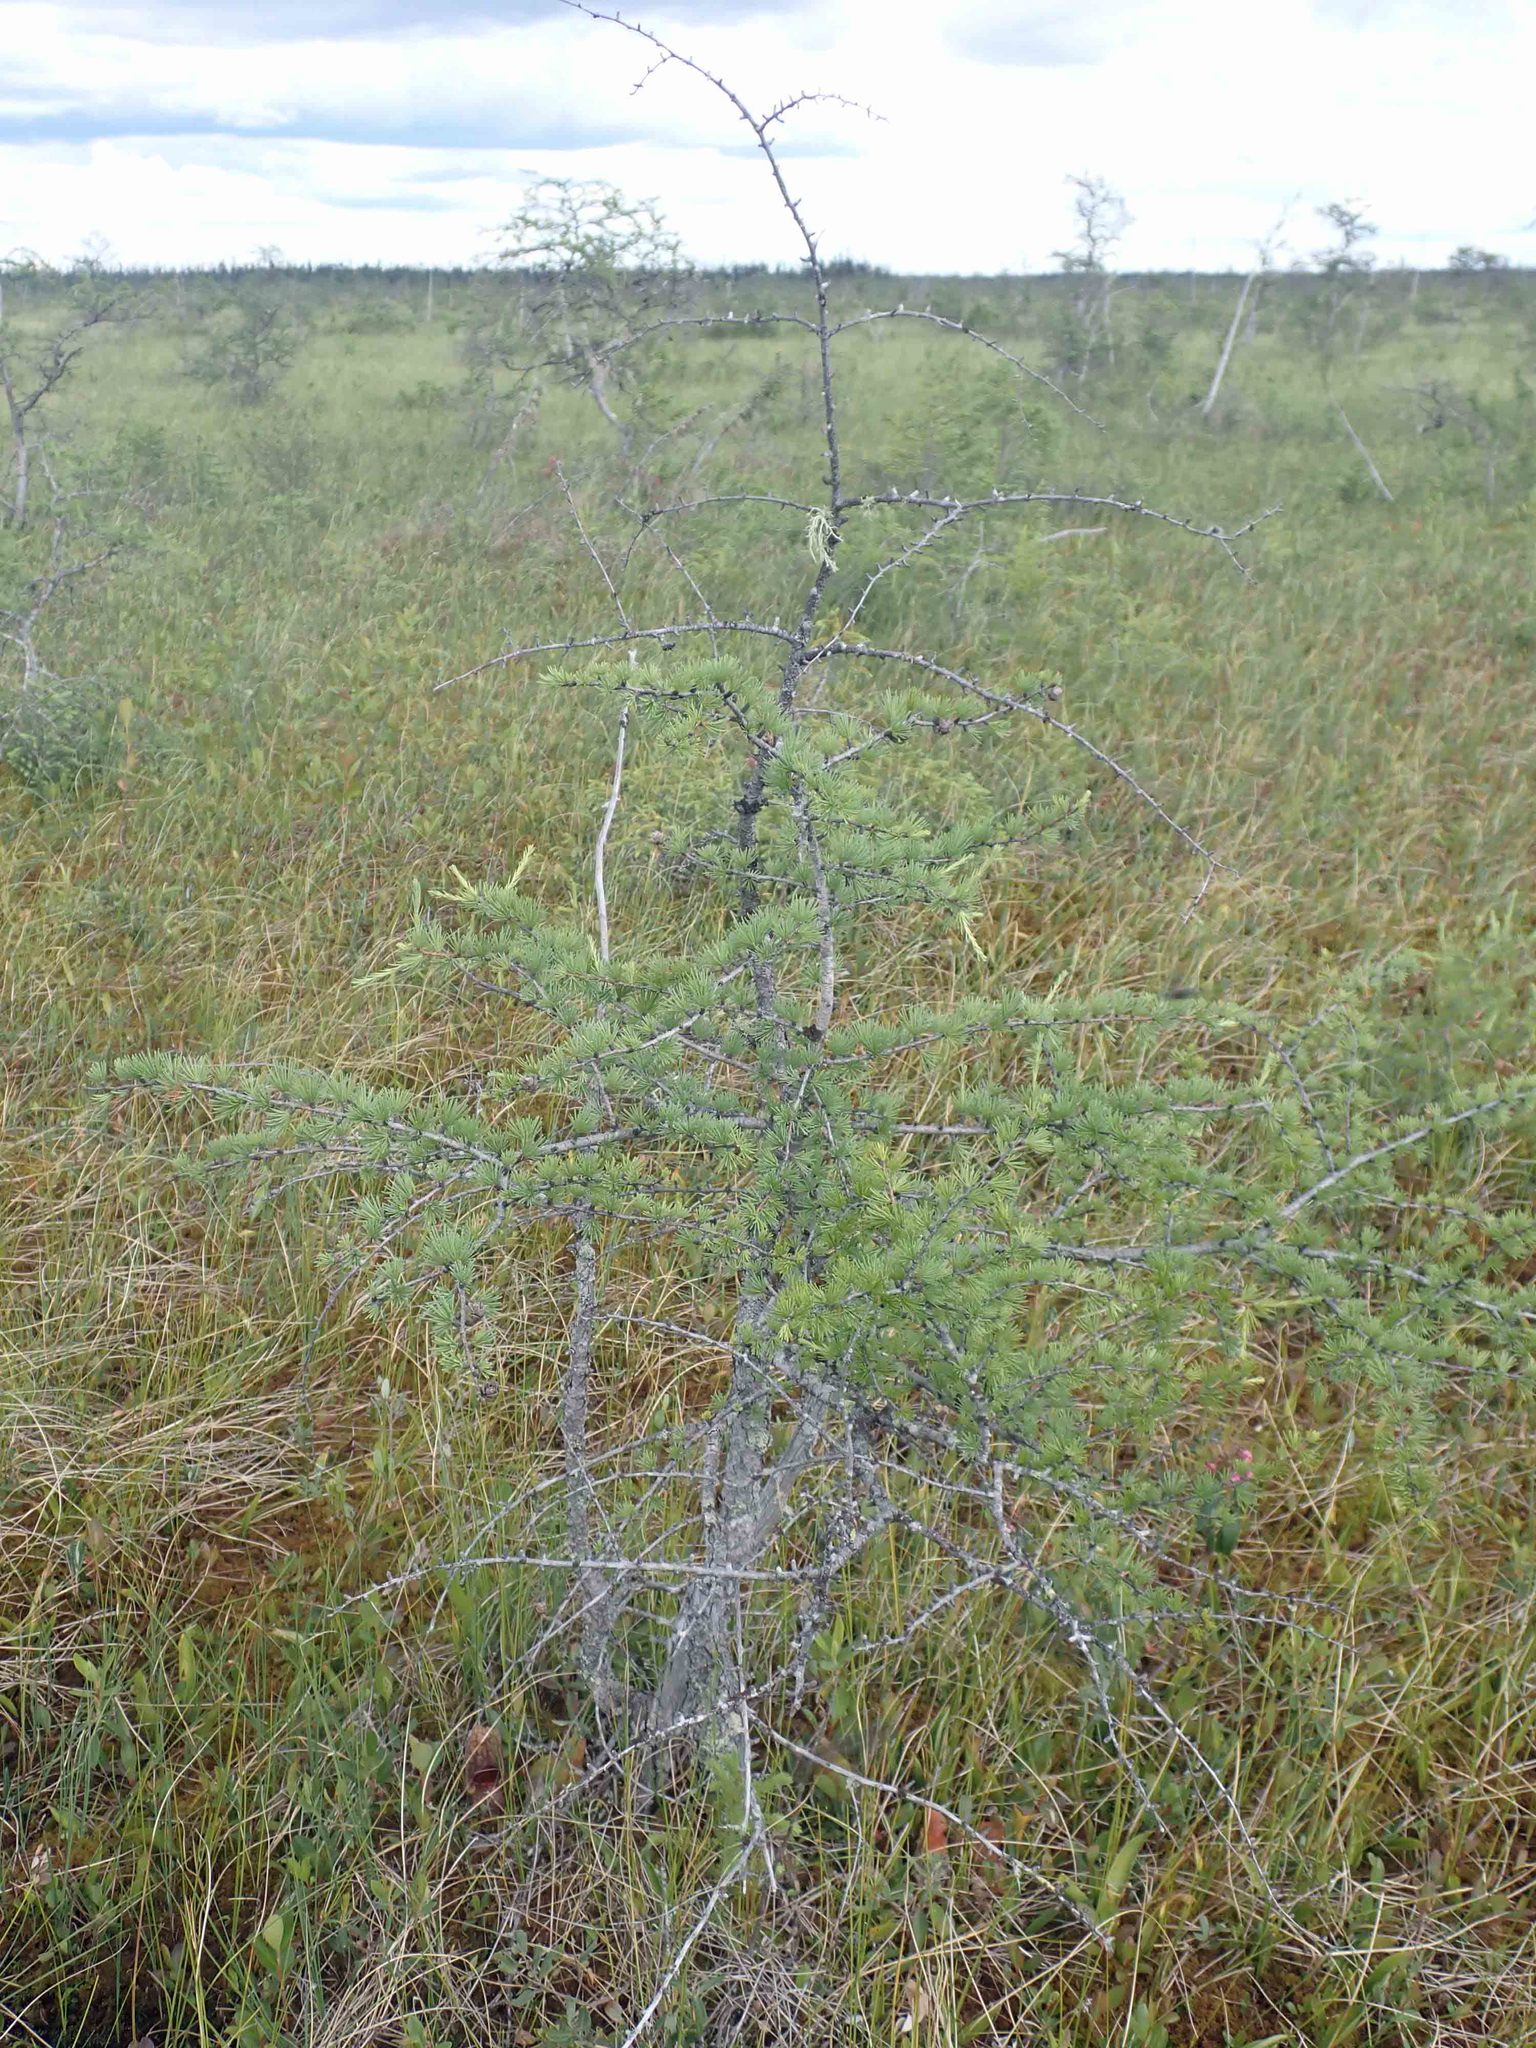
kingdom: Plantae
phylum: Tracheophyta
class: Pinopsida
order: Pinales
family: Pinaceae
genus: Larix
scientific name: Larix laricina
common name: American larch
